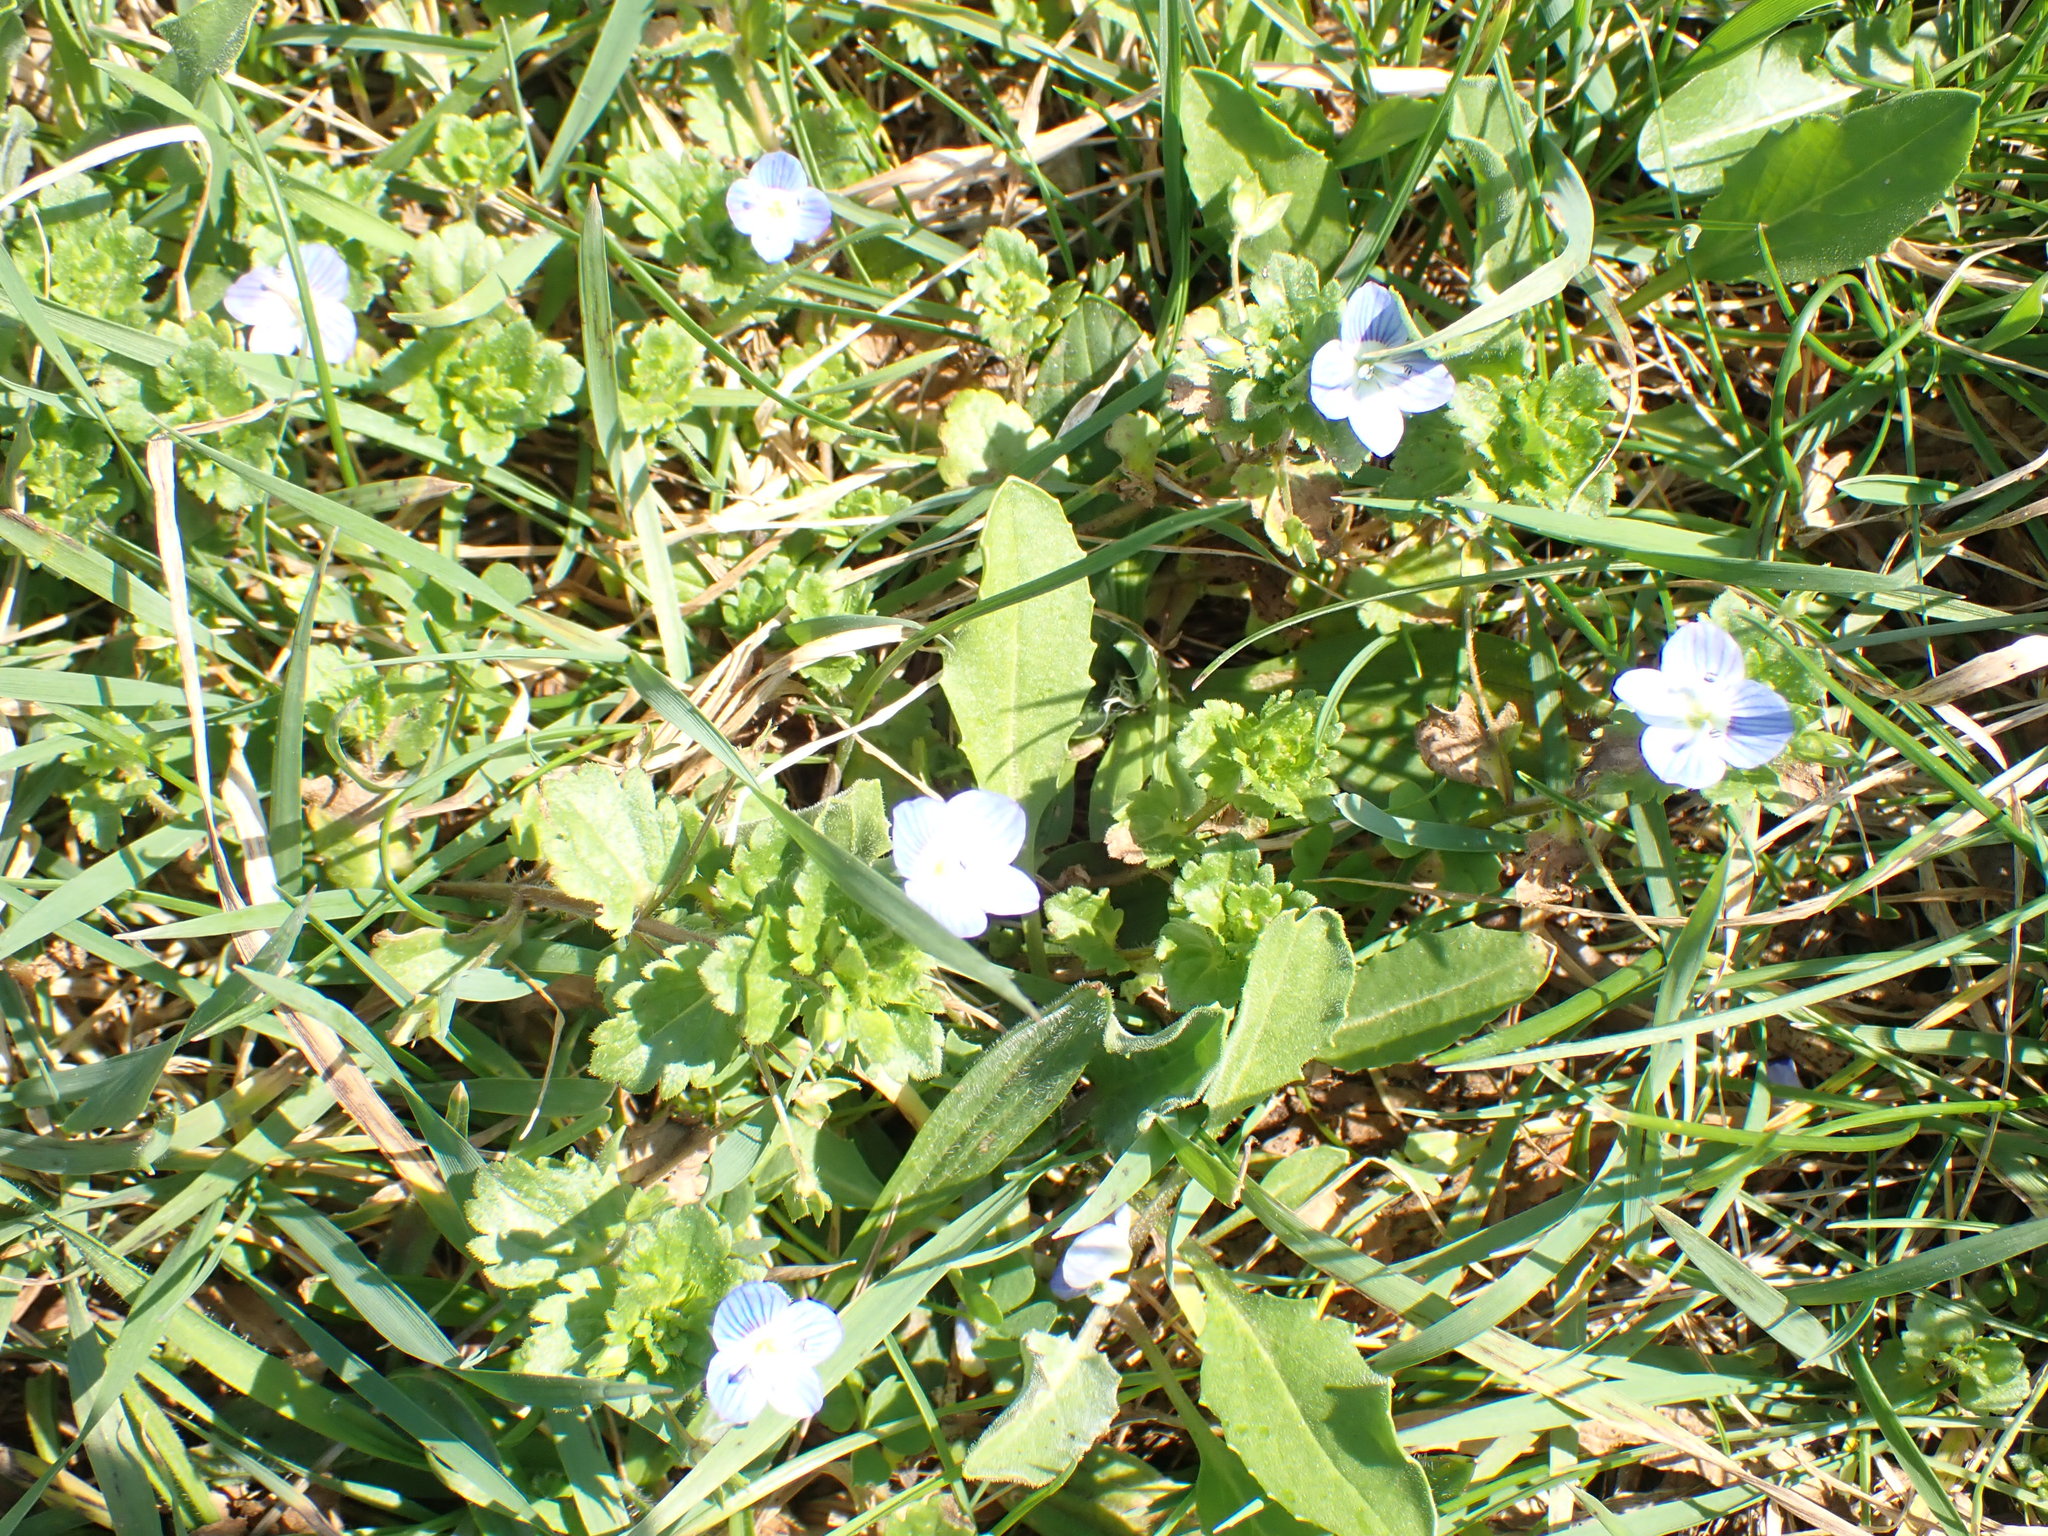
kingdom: Plantae
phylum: Tracheophyta
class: Magnoliopsida
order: Lamiales
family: Plantaginaceae
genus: Veronica
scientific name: Veronica persica
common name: Common field-speedwell
